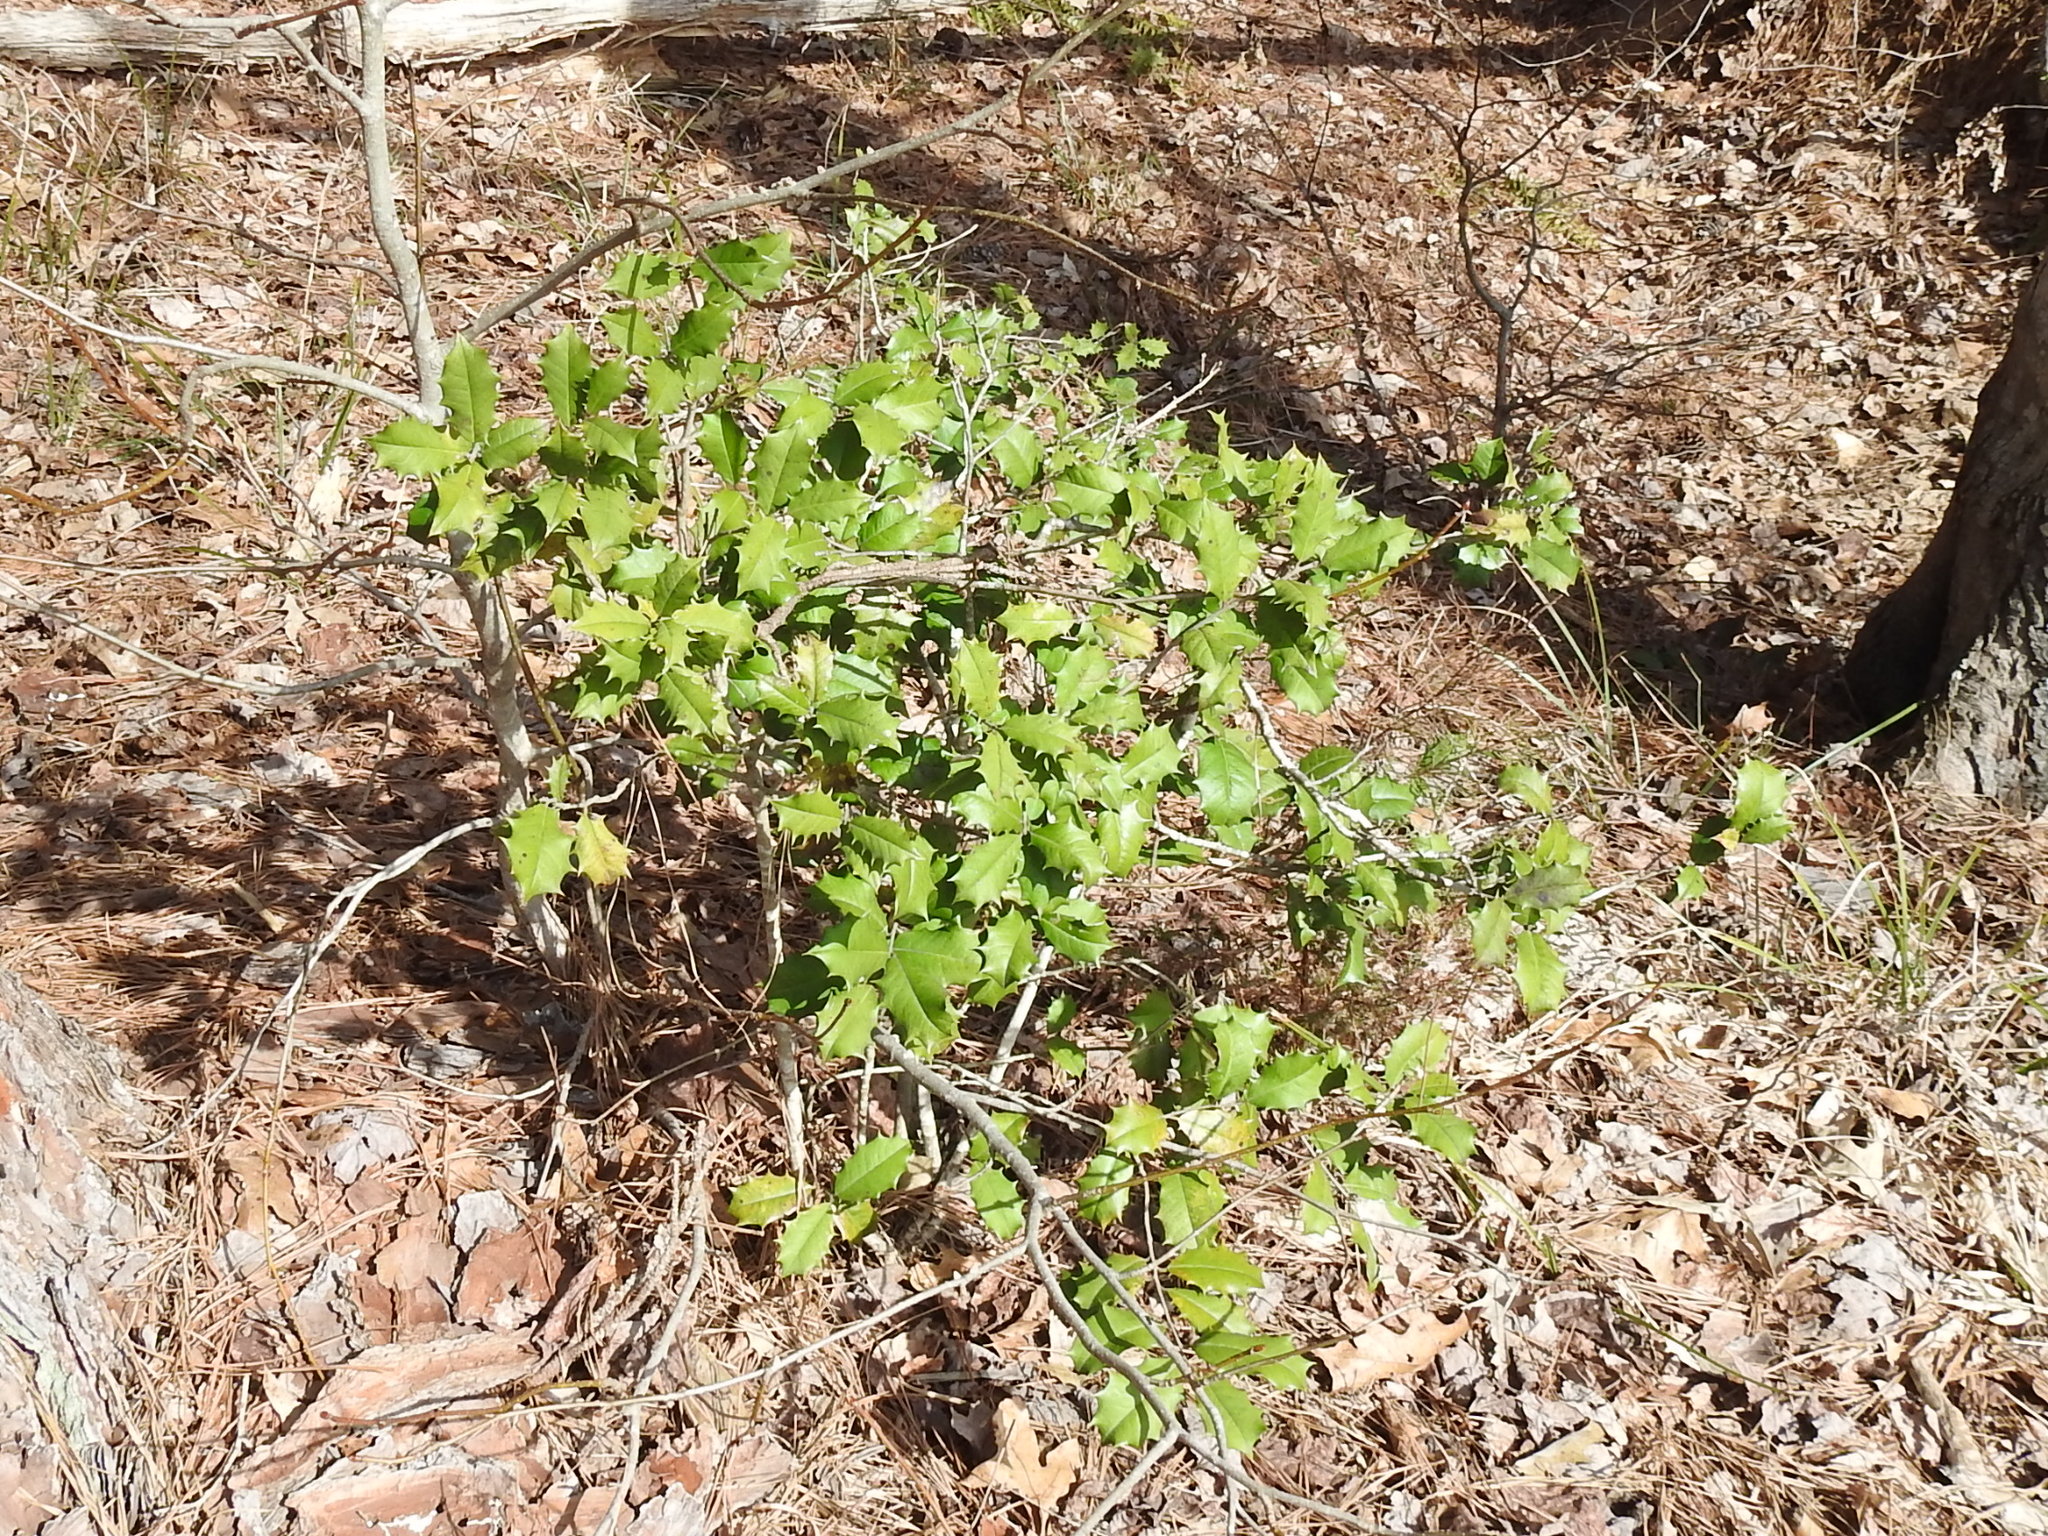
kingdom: Plantae
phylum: Tracheophyta
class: Magnoliopsida
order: Aquifoliales
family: Aquifoliaceae
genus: Ilex
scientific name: Ilex opaca
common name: American holly
